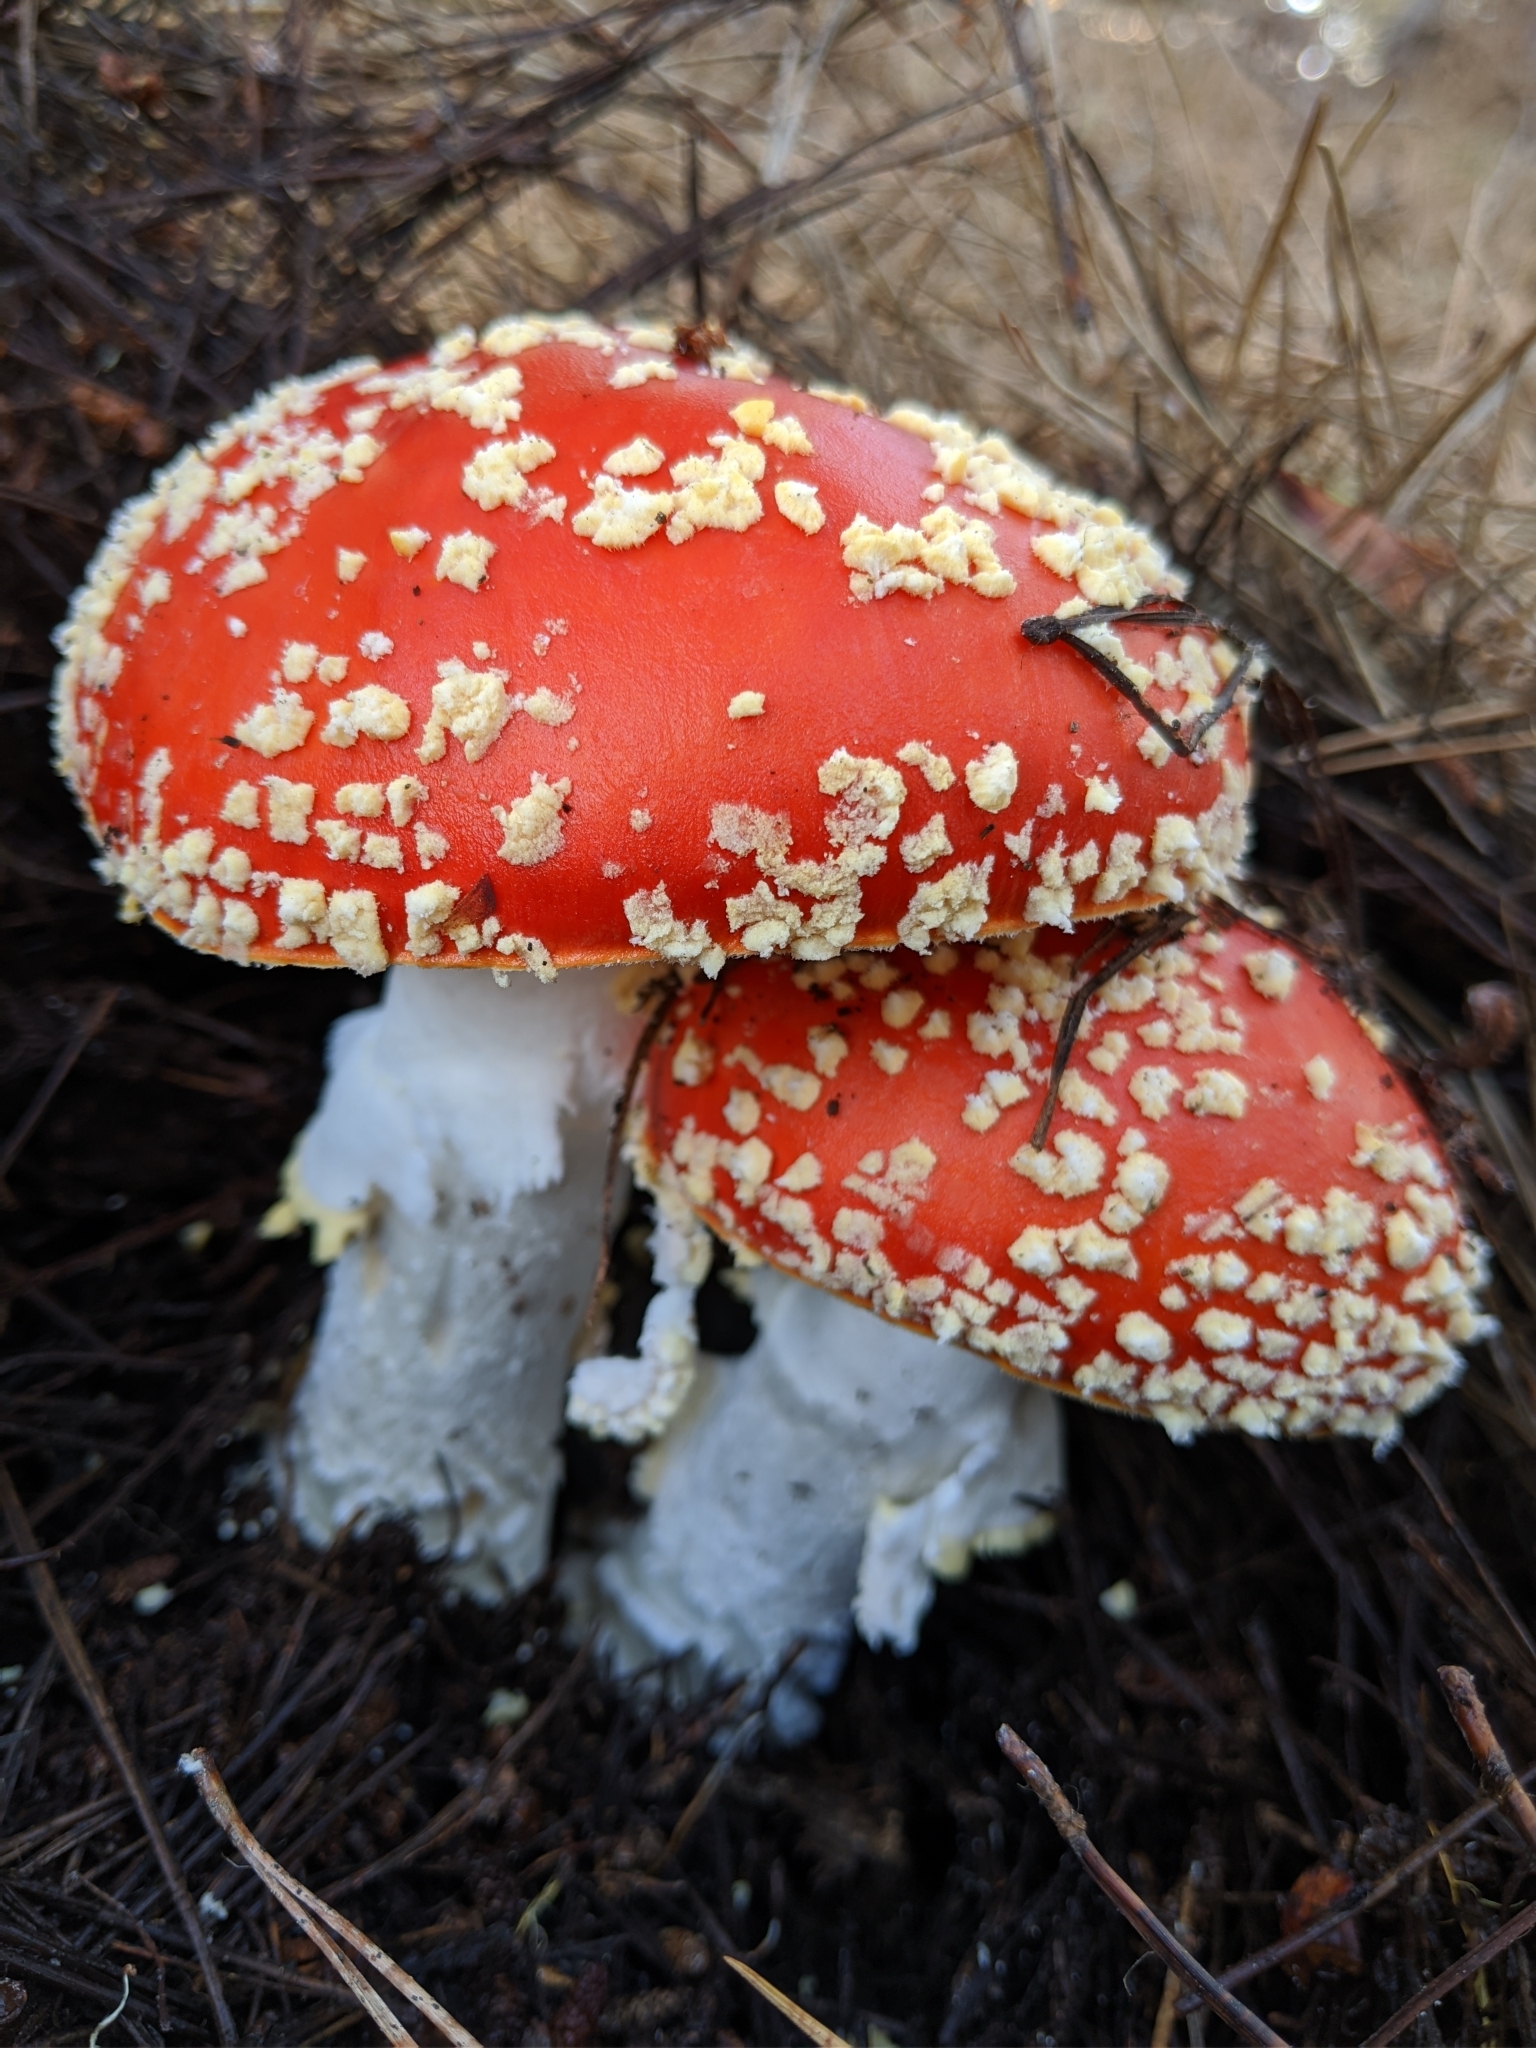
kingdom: Fungi
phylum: Basidiomycota
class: Agaricomycetes
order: Agaricales
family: Amanitaceae
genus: Amanita
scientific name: Amanita muscaria
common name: Fly agaric
